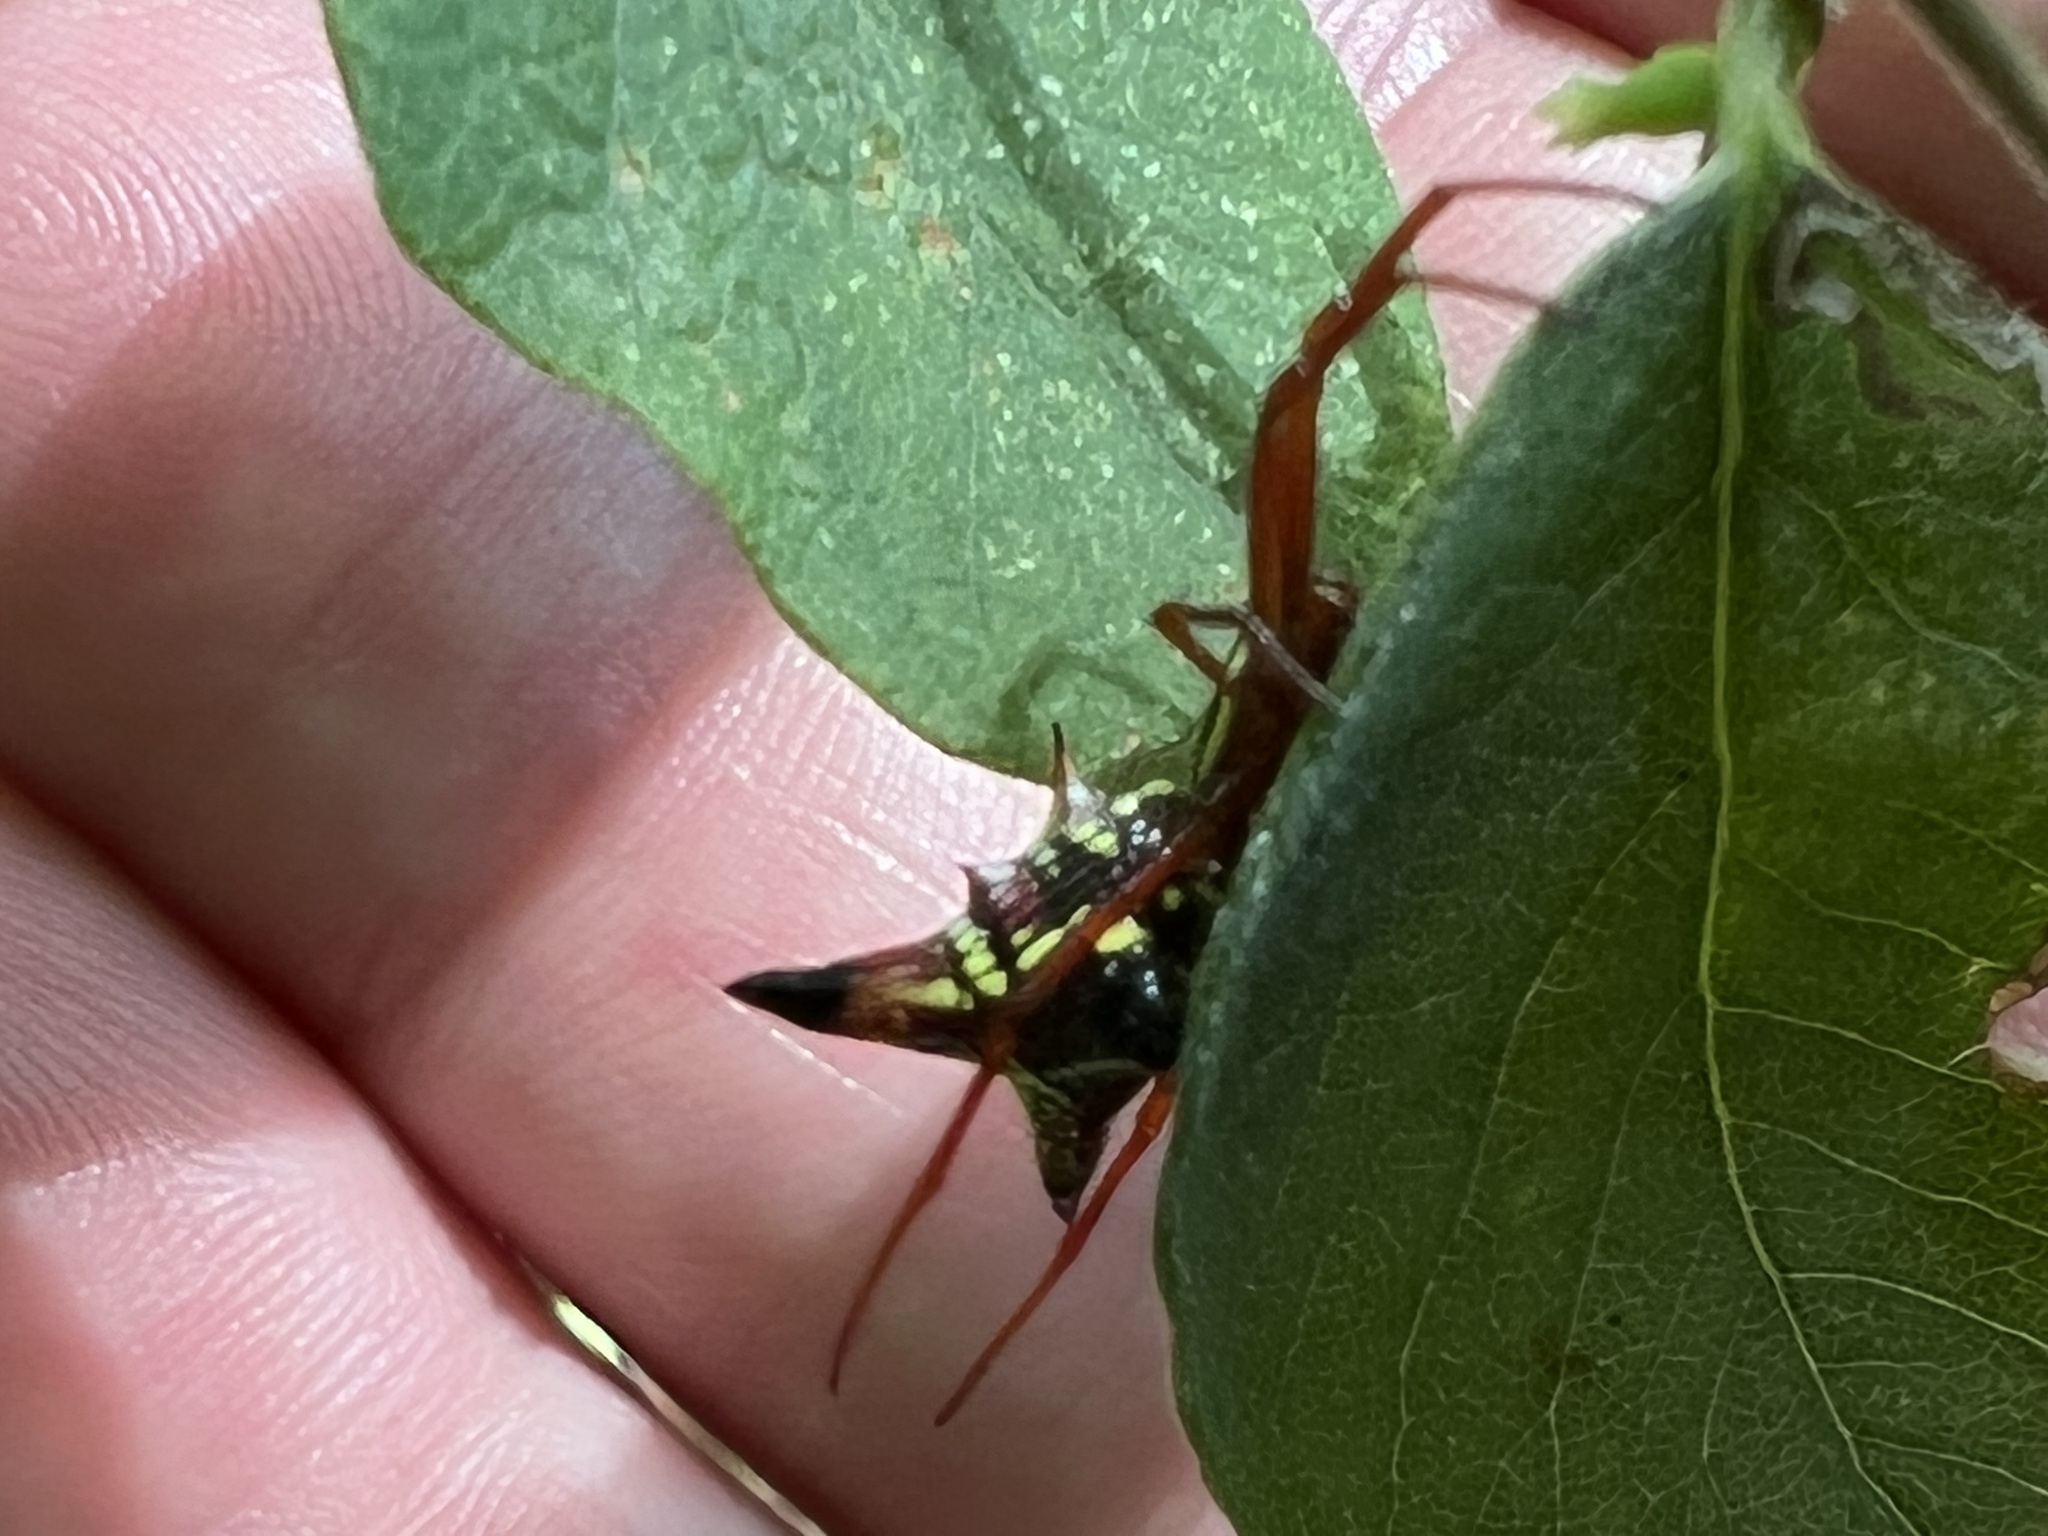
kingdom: Animalia
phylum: Arthropoda
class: Arachnida
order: Araneae
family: Araneidae
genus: Micrathena
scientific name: Micrathena sagittata
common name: Orb weavers
